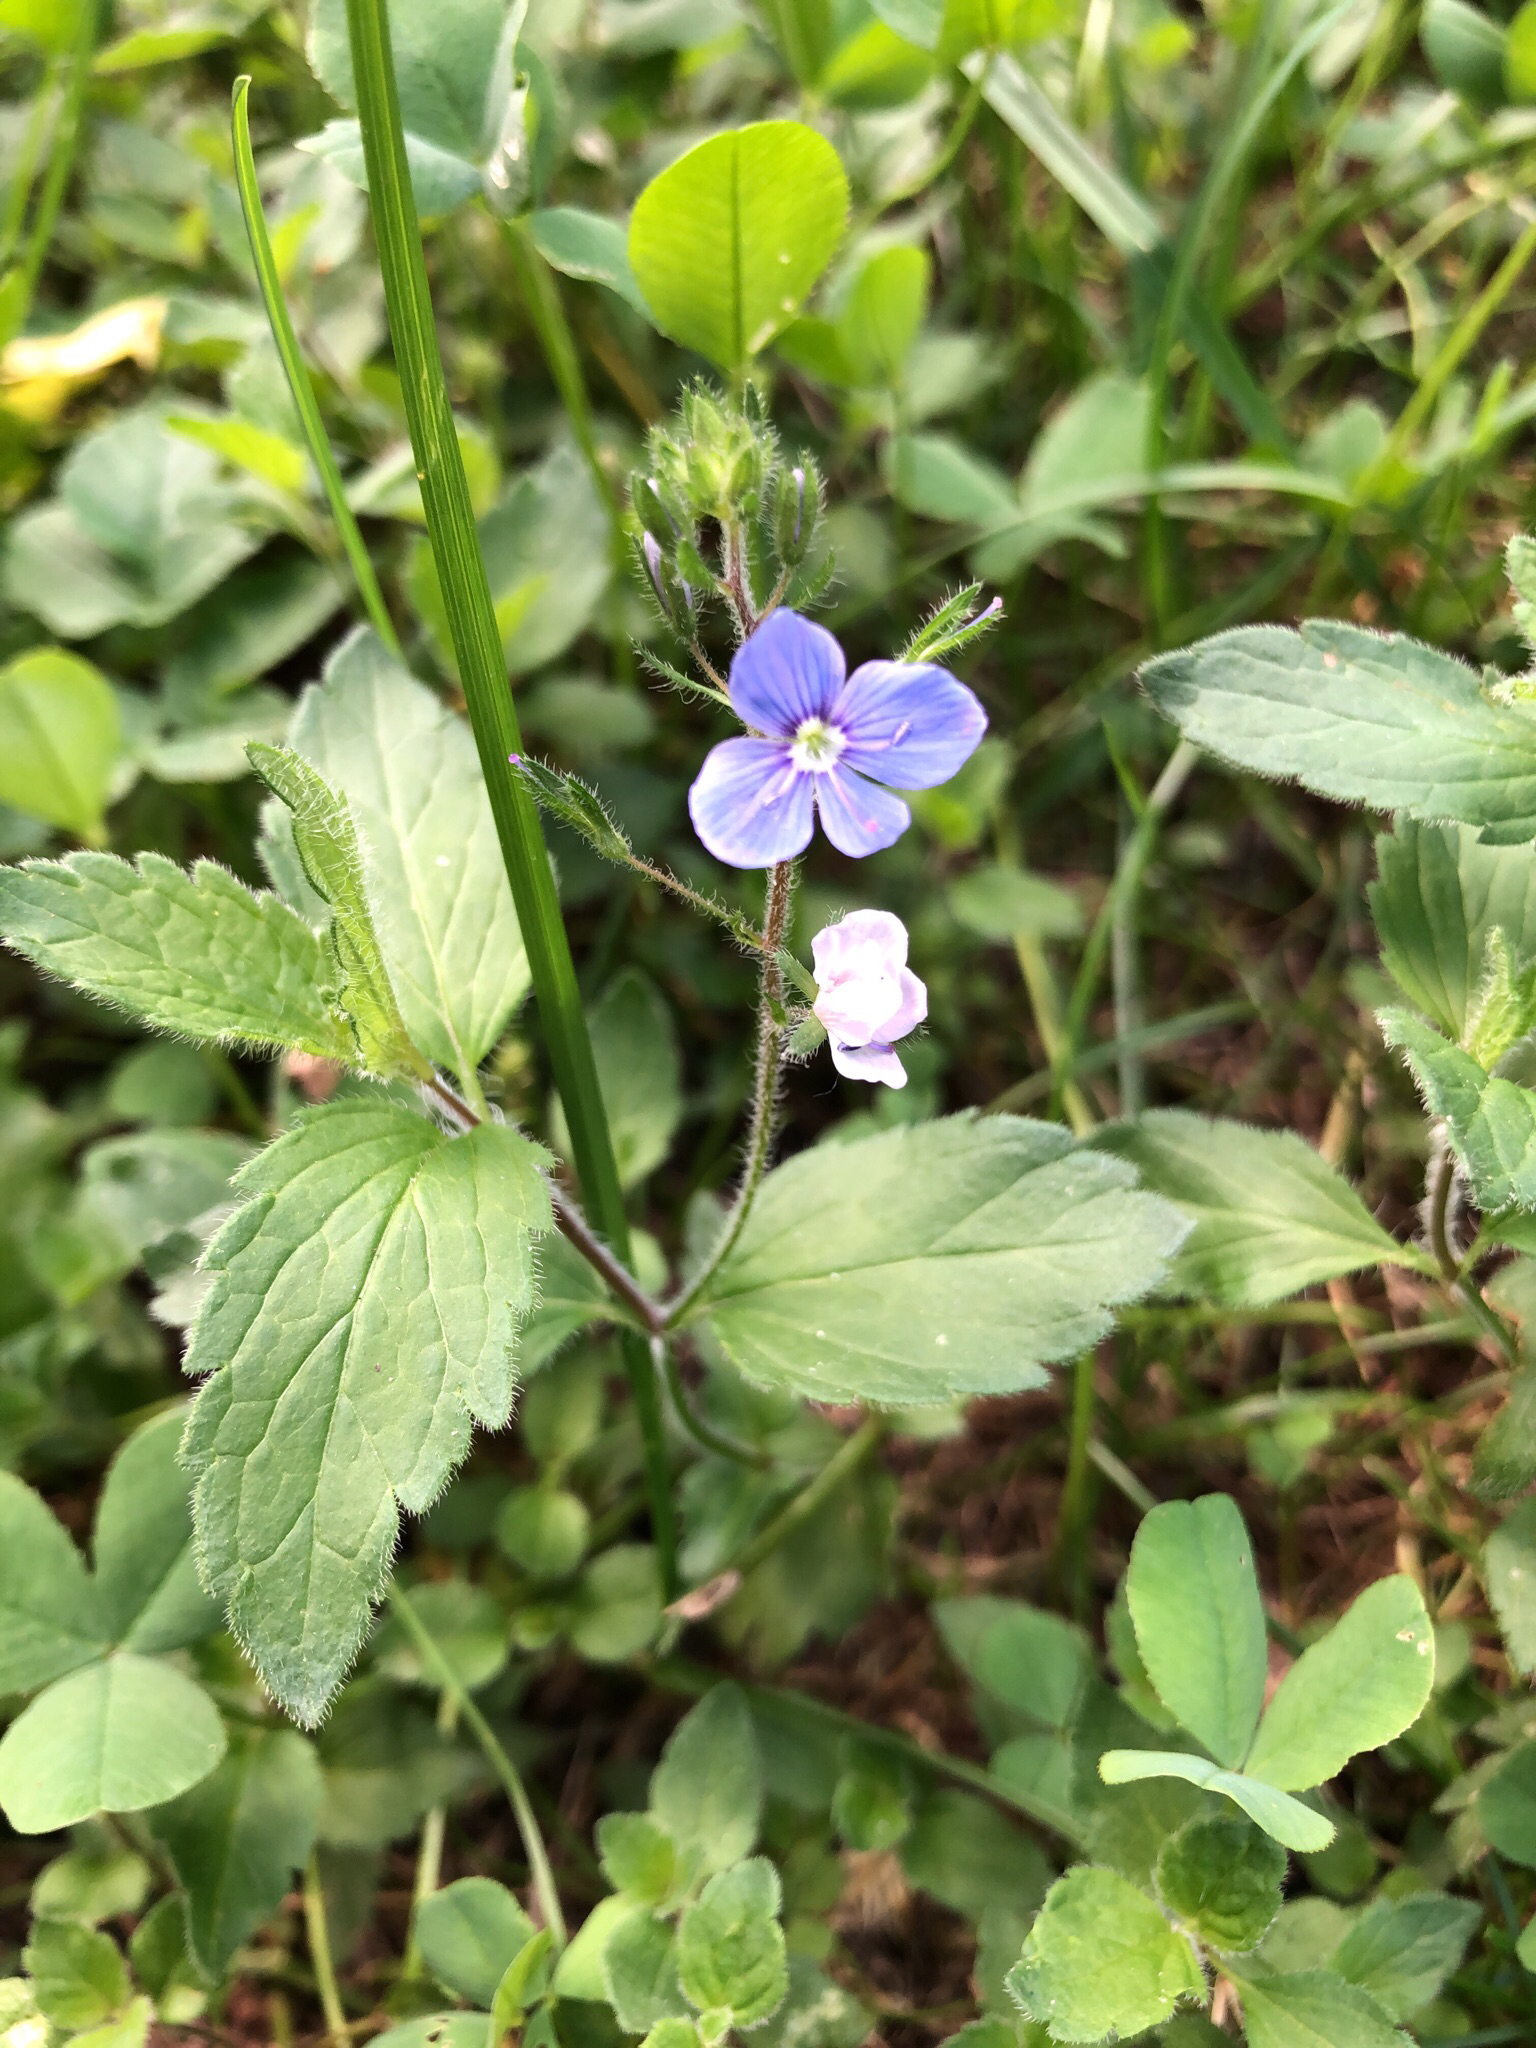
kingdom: Plantae
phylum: Tracheophyta
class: Magnoliopsida
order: Lamiales
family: Plantaginaceae
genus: Veronica
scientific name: Veronica chamaedrys
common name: Germander speedwell
